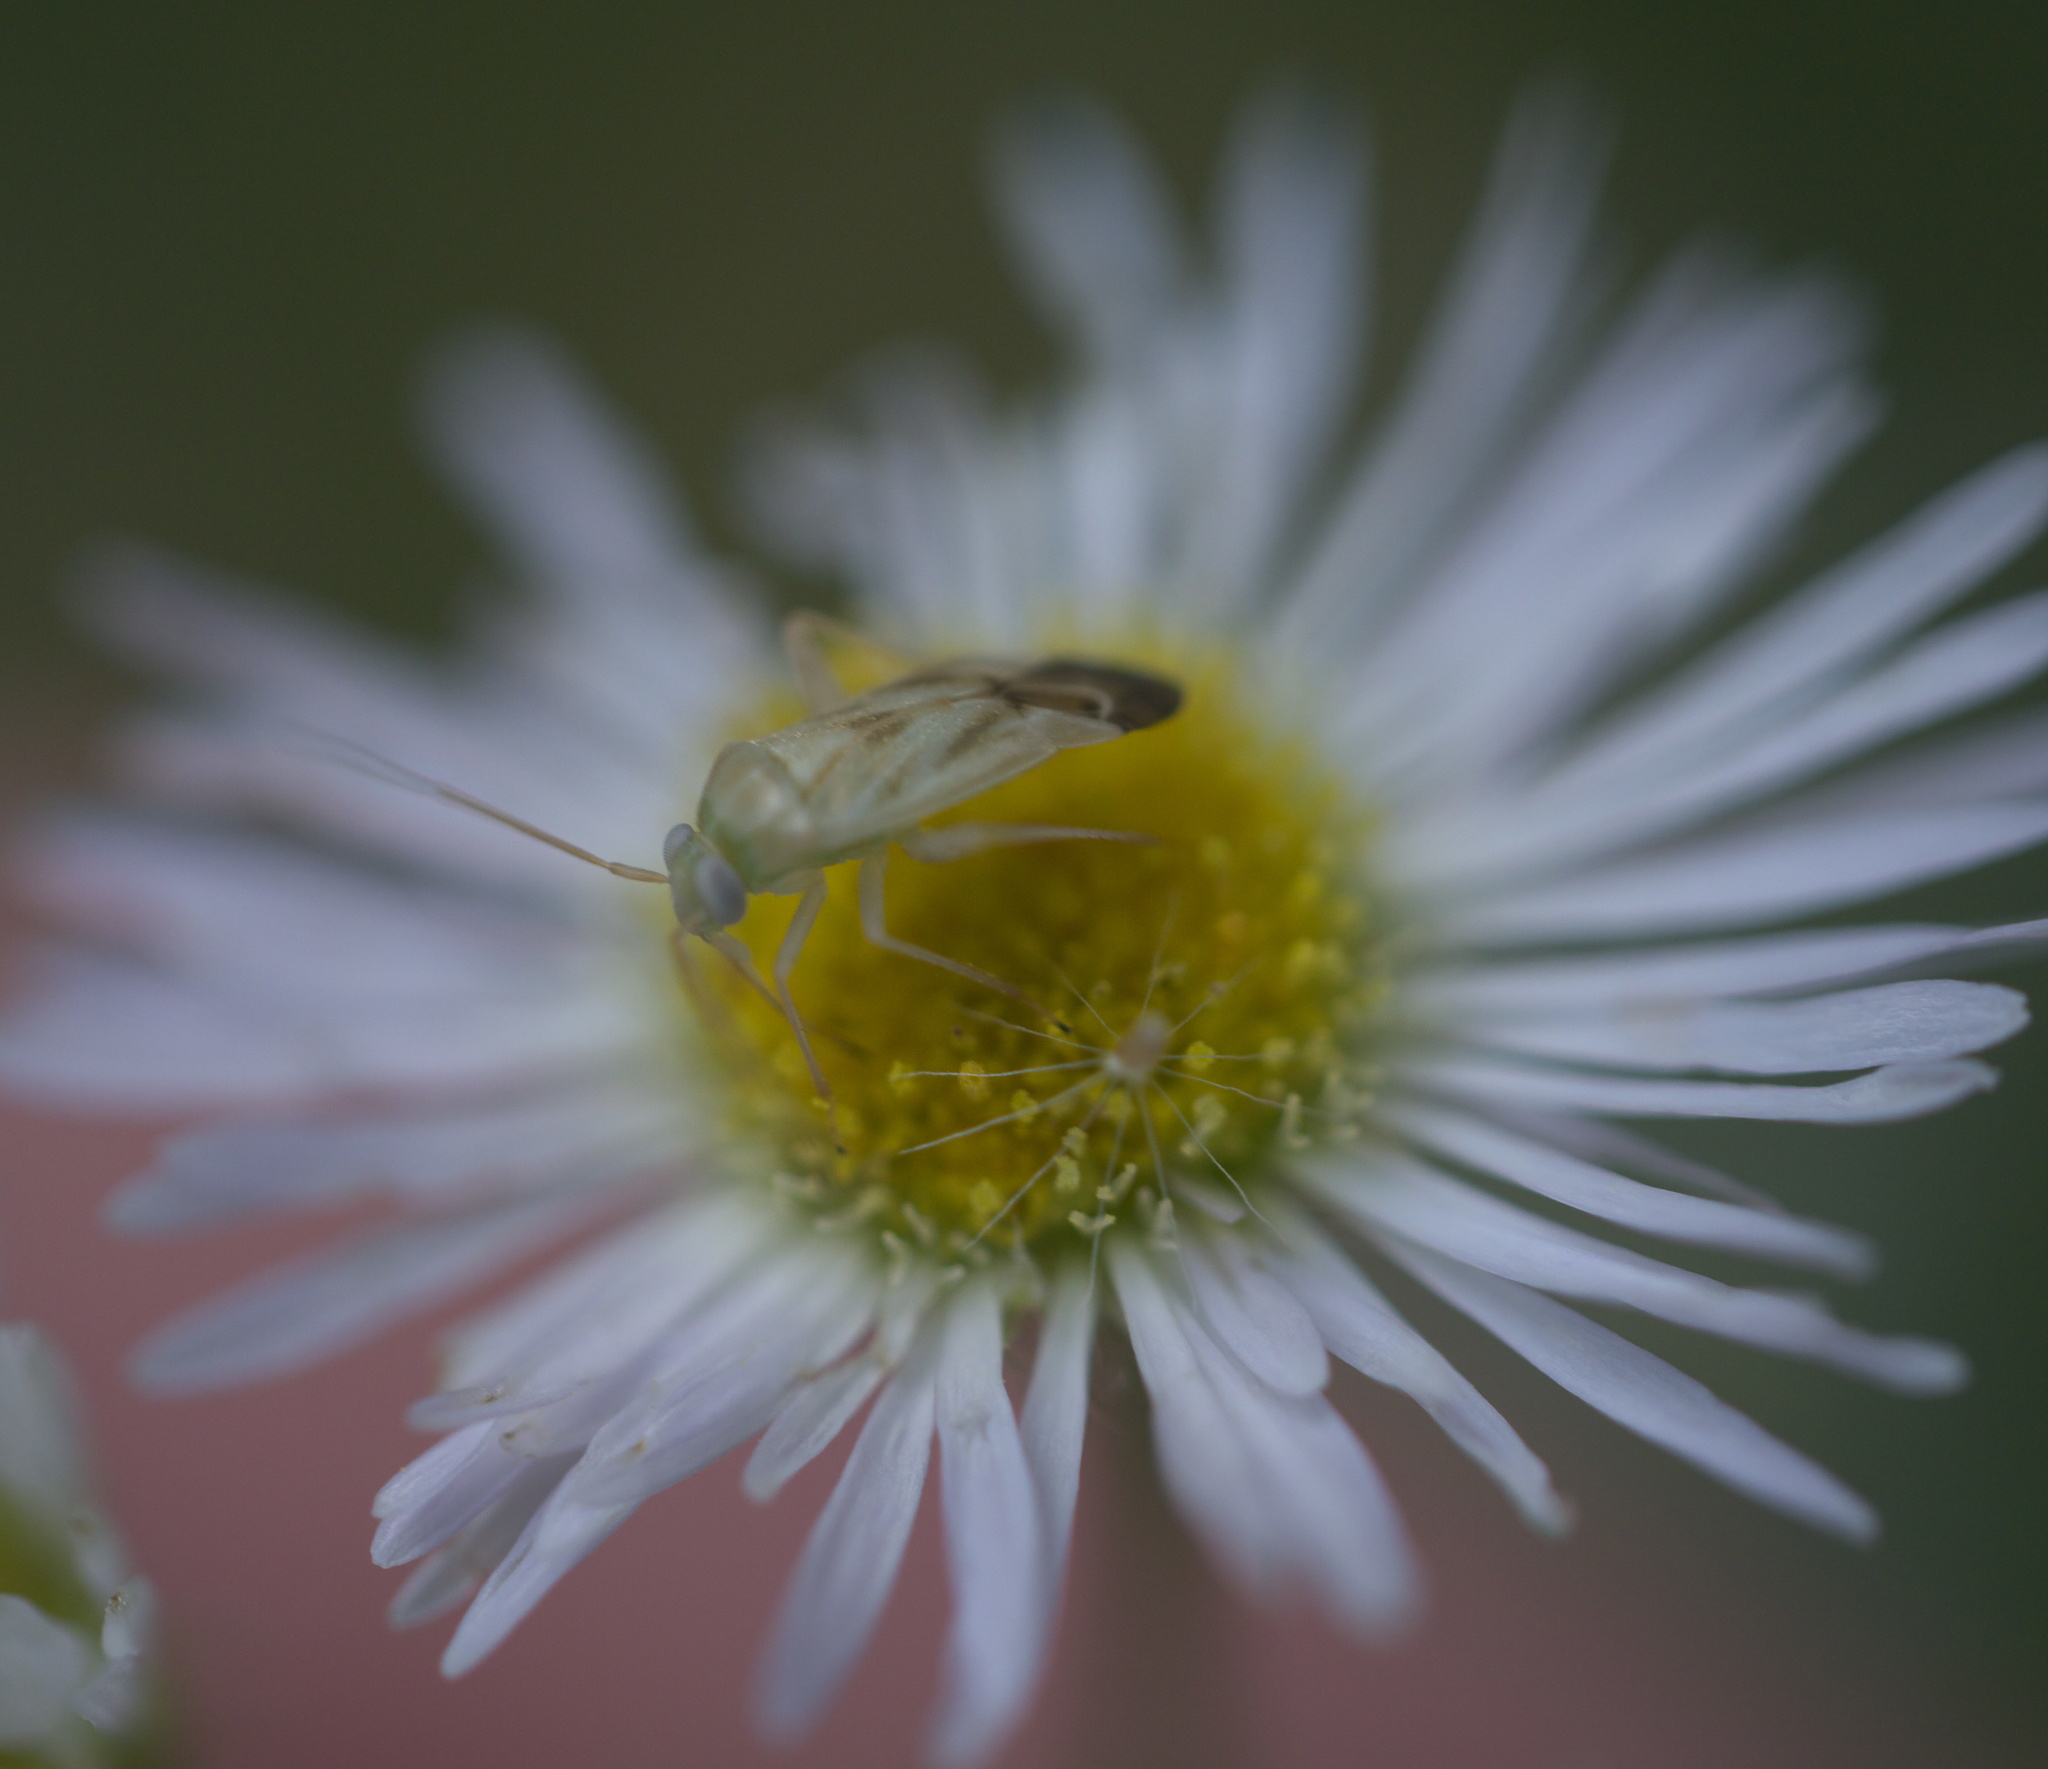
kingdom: Animalia
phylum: Arthropoda
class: Insecta
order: Hemiptera
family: Miridae
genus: Taylorilygus
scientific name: Taylorilygus apicalis
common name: Plant bug
